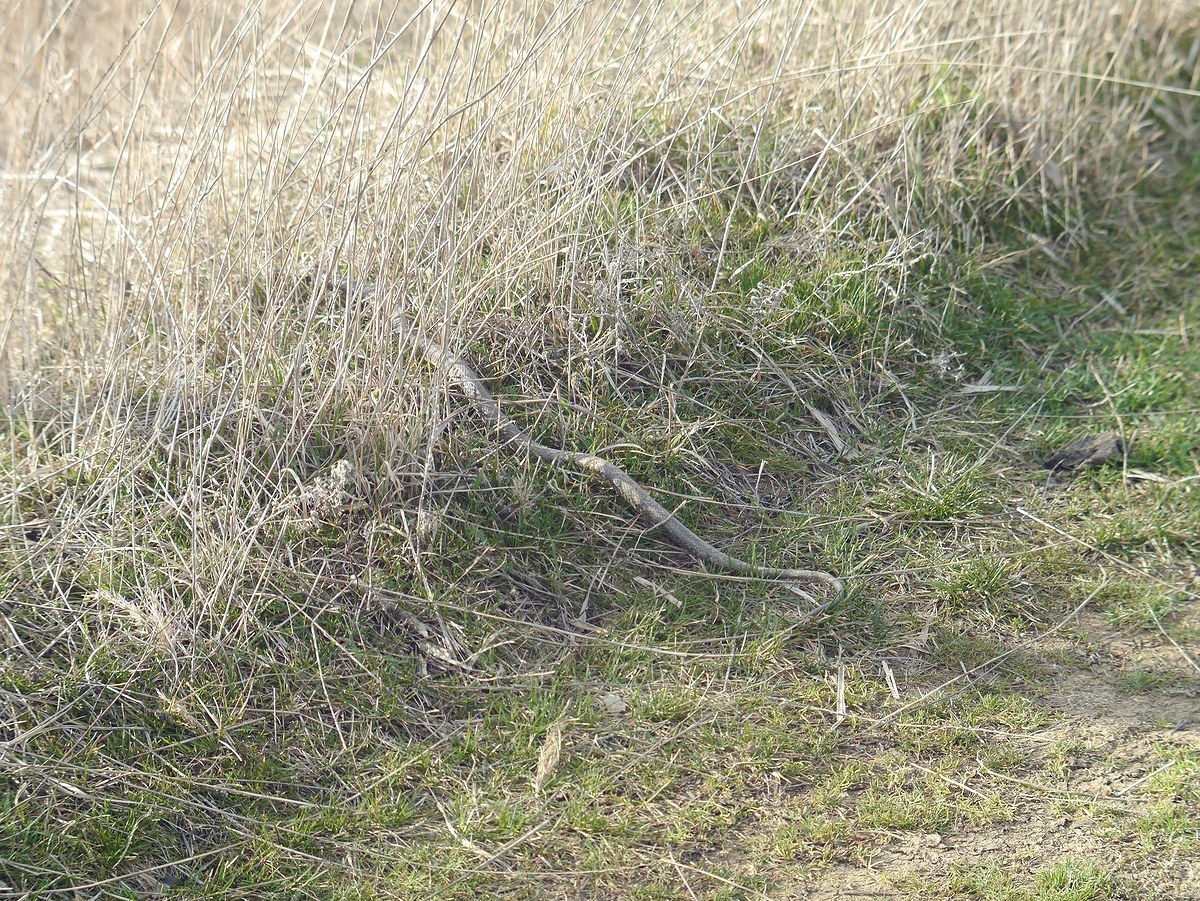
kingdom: Animalia
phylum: Chordata
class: Squamata
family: Colubridae
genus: Natrix
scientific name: Natrix natrix
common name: Grass snake
